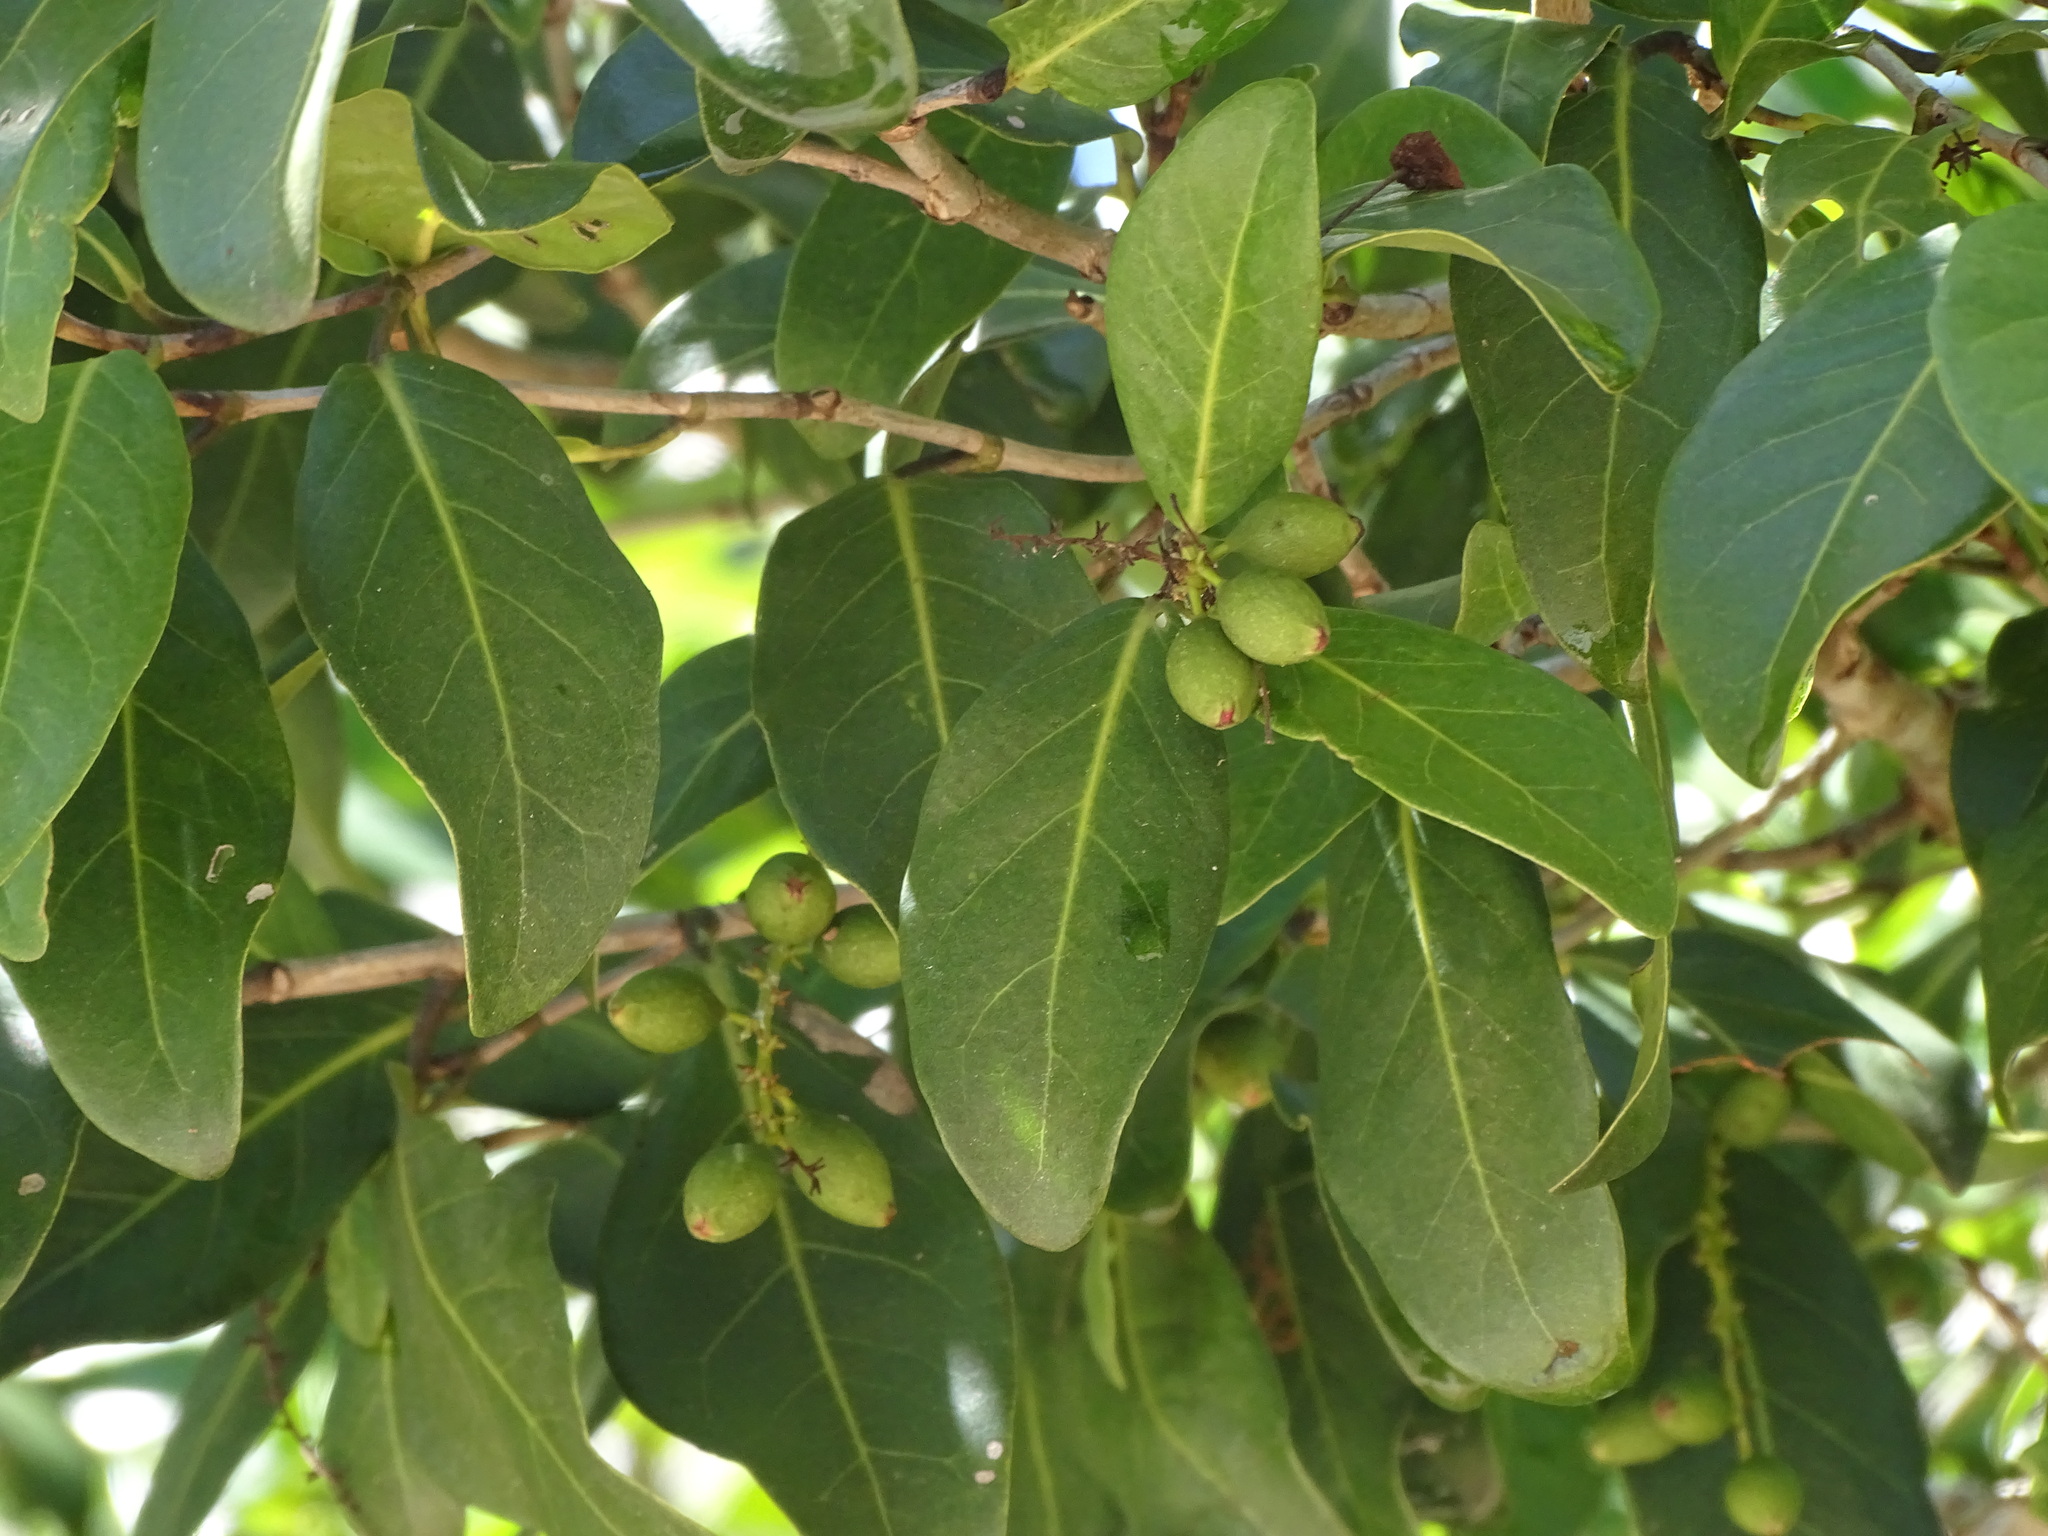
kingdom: Plantae
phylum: Tracheophyta
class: Magnoliopsida
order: Caryophyllales
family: Polygonaceae
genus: Coccoloba
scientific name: Coccoloba diversifolia
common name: Pigeon-plum
